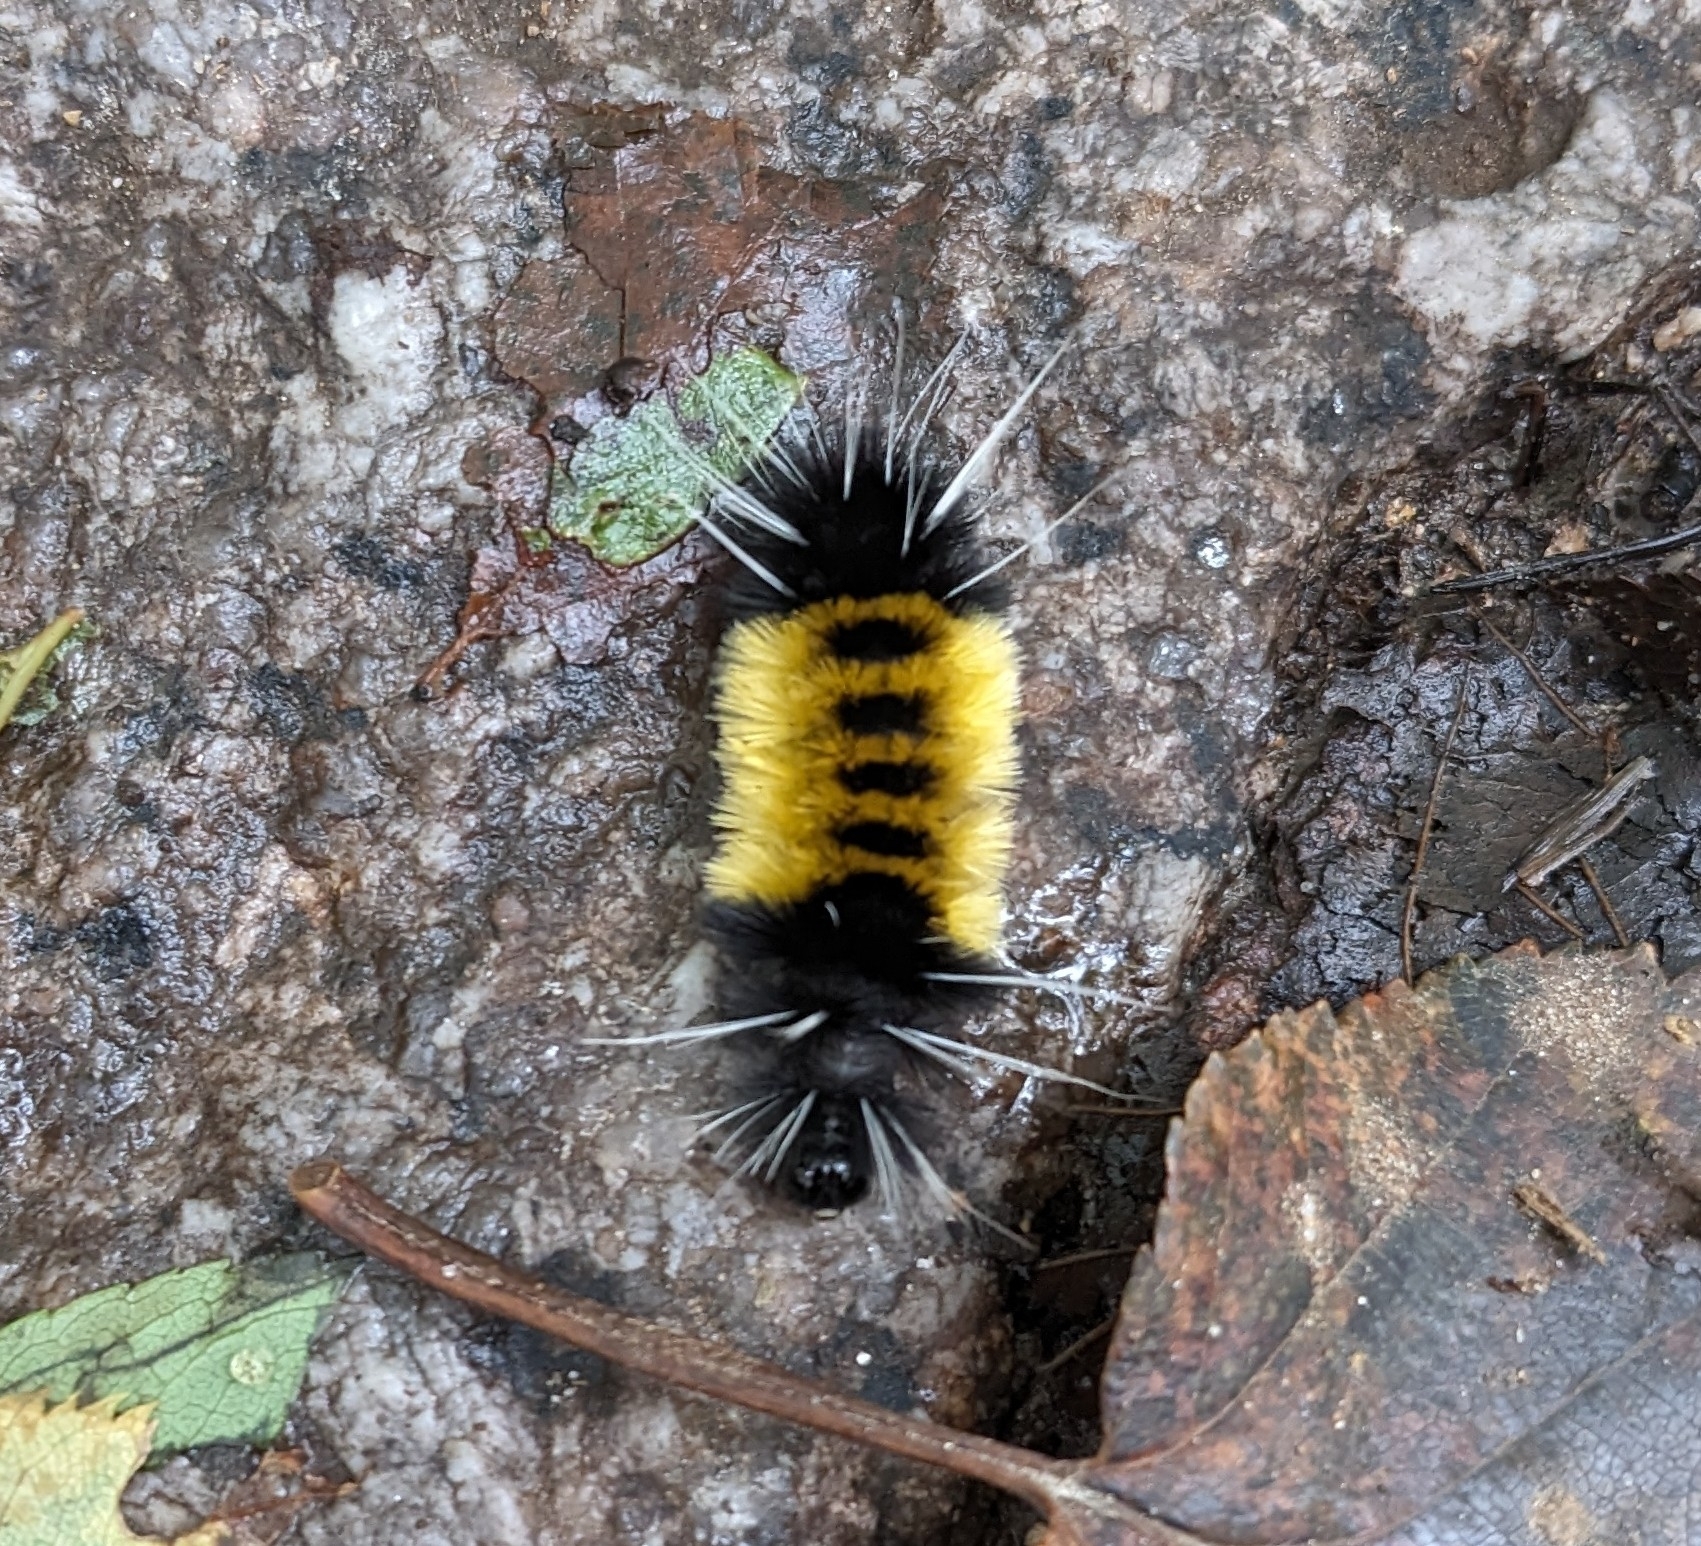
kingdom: Animalia
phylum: Arthropoda
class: Insecta
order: Lepidoptera
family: Erebidae
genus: Lophocampa
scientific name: Lophocampa maculata
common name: Spotted tussock moth
